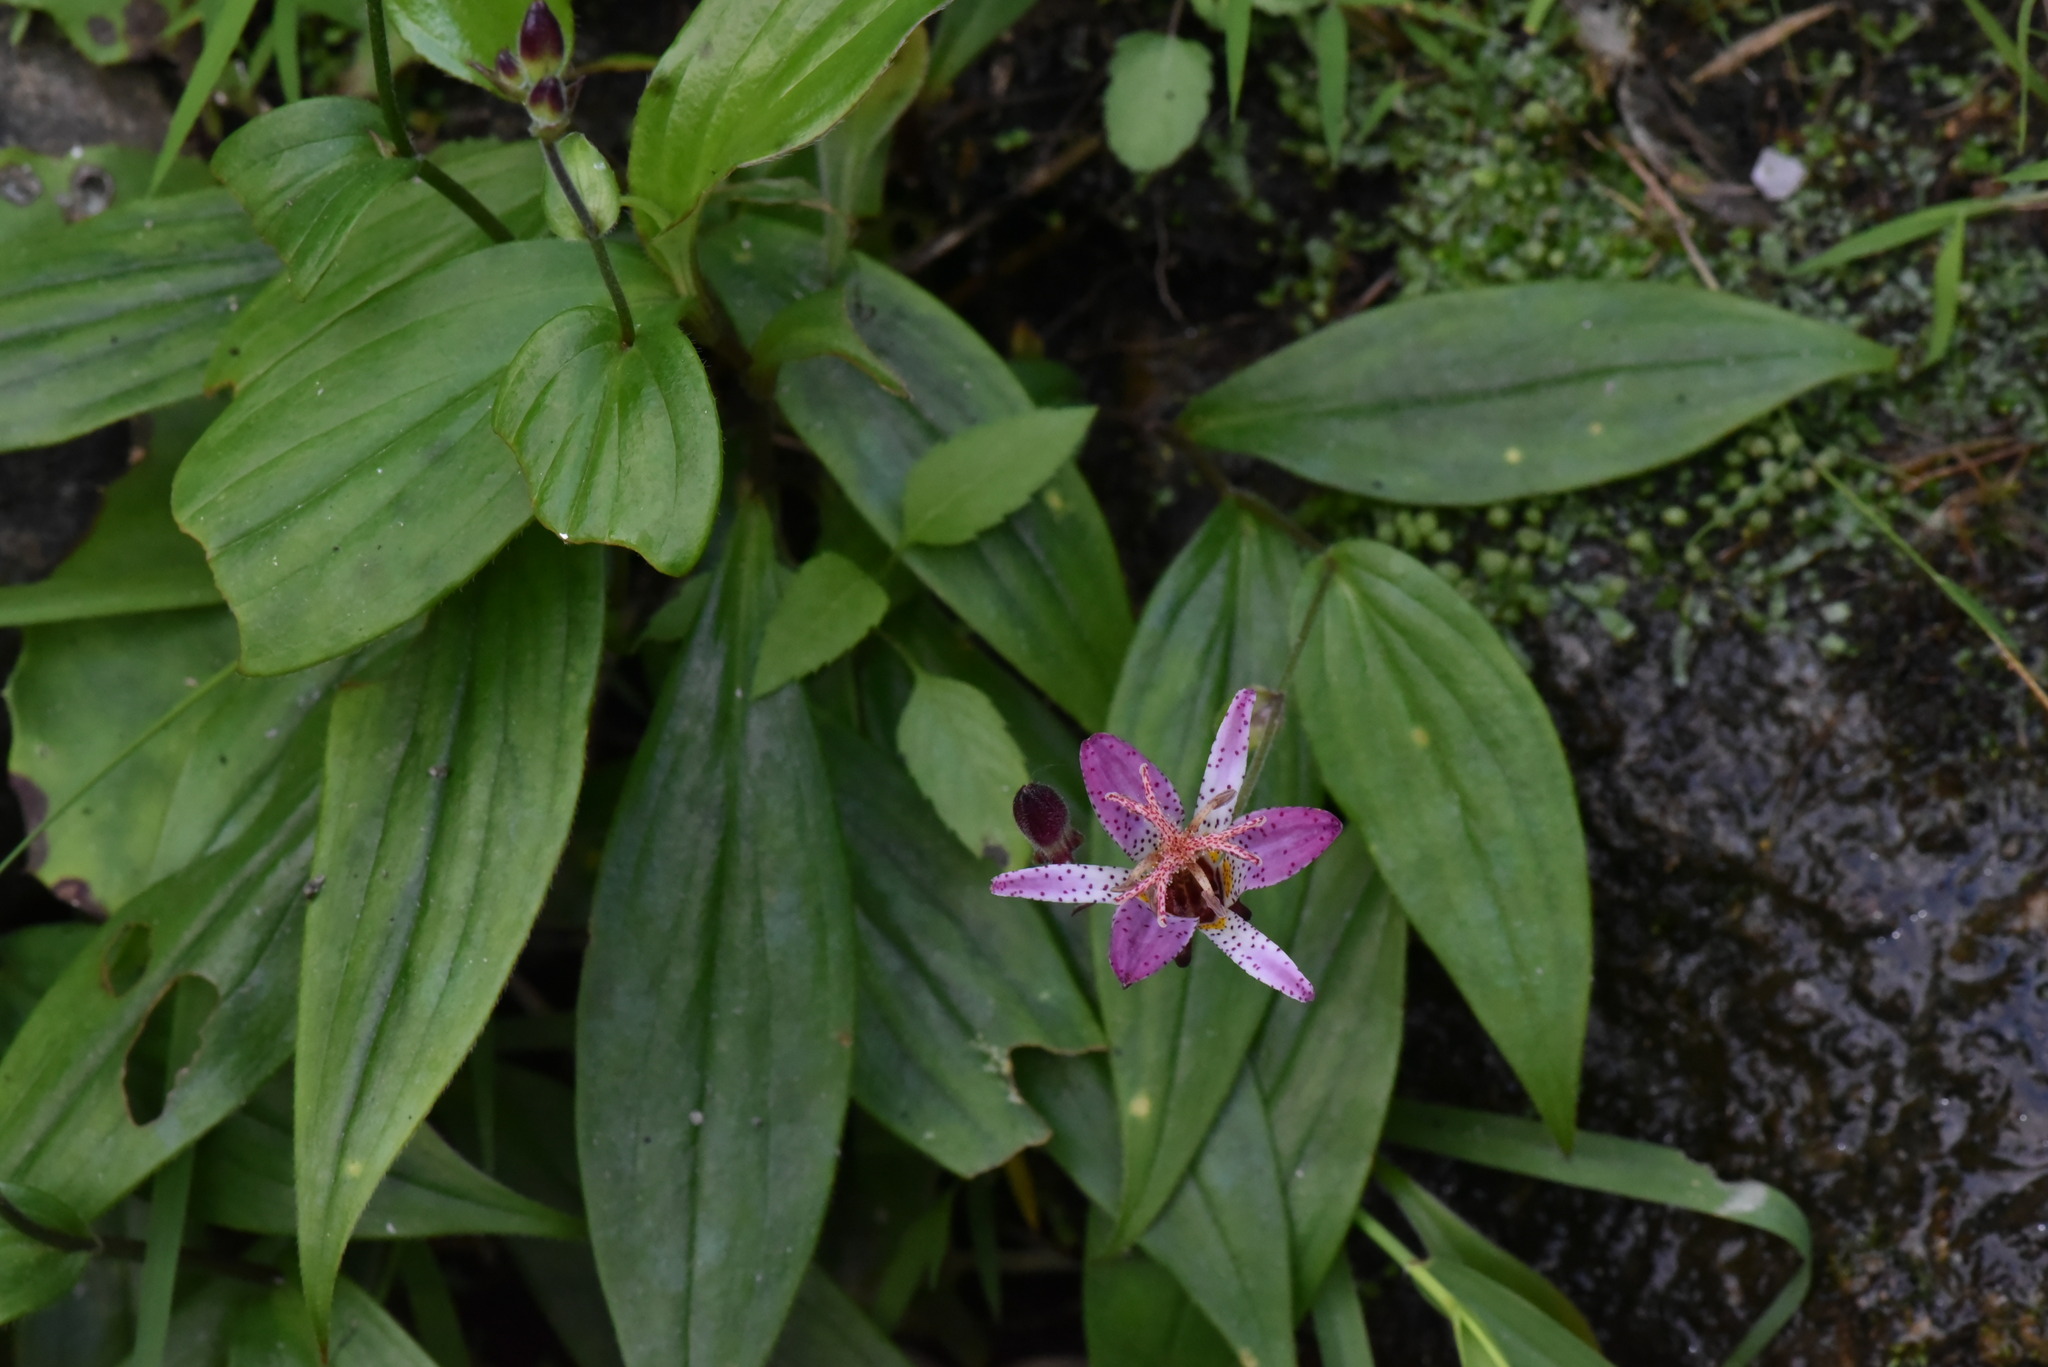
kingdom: Plantae
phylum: Tracheophyta
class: Liliopsida
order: Liliales
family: Liliaceae
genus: Tricyrtis
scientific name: Tricyrtis formosana
